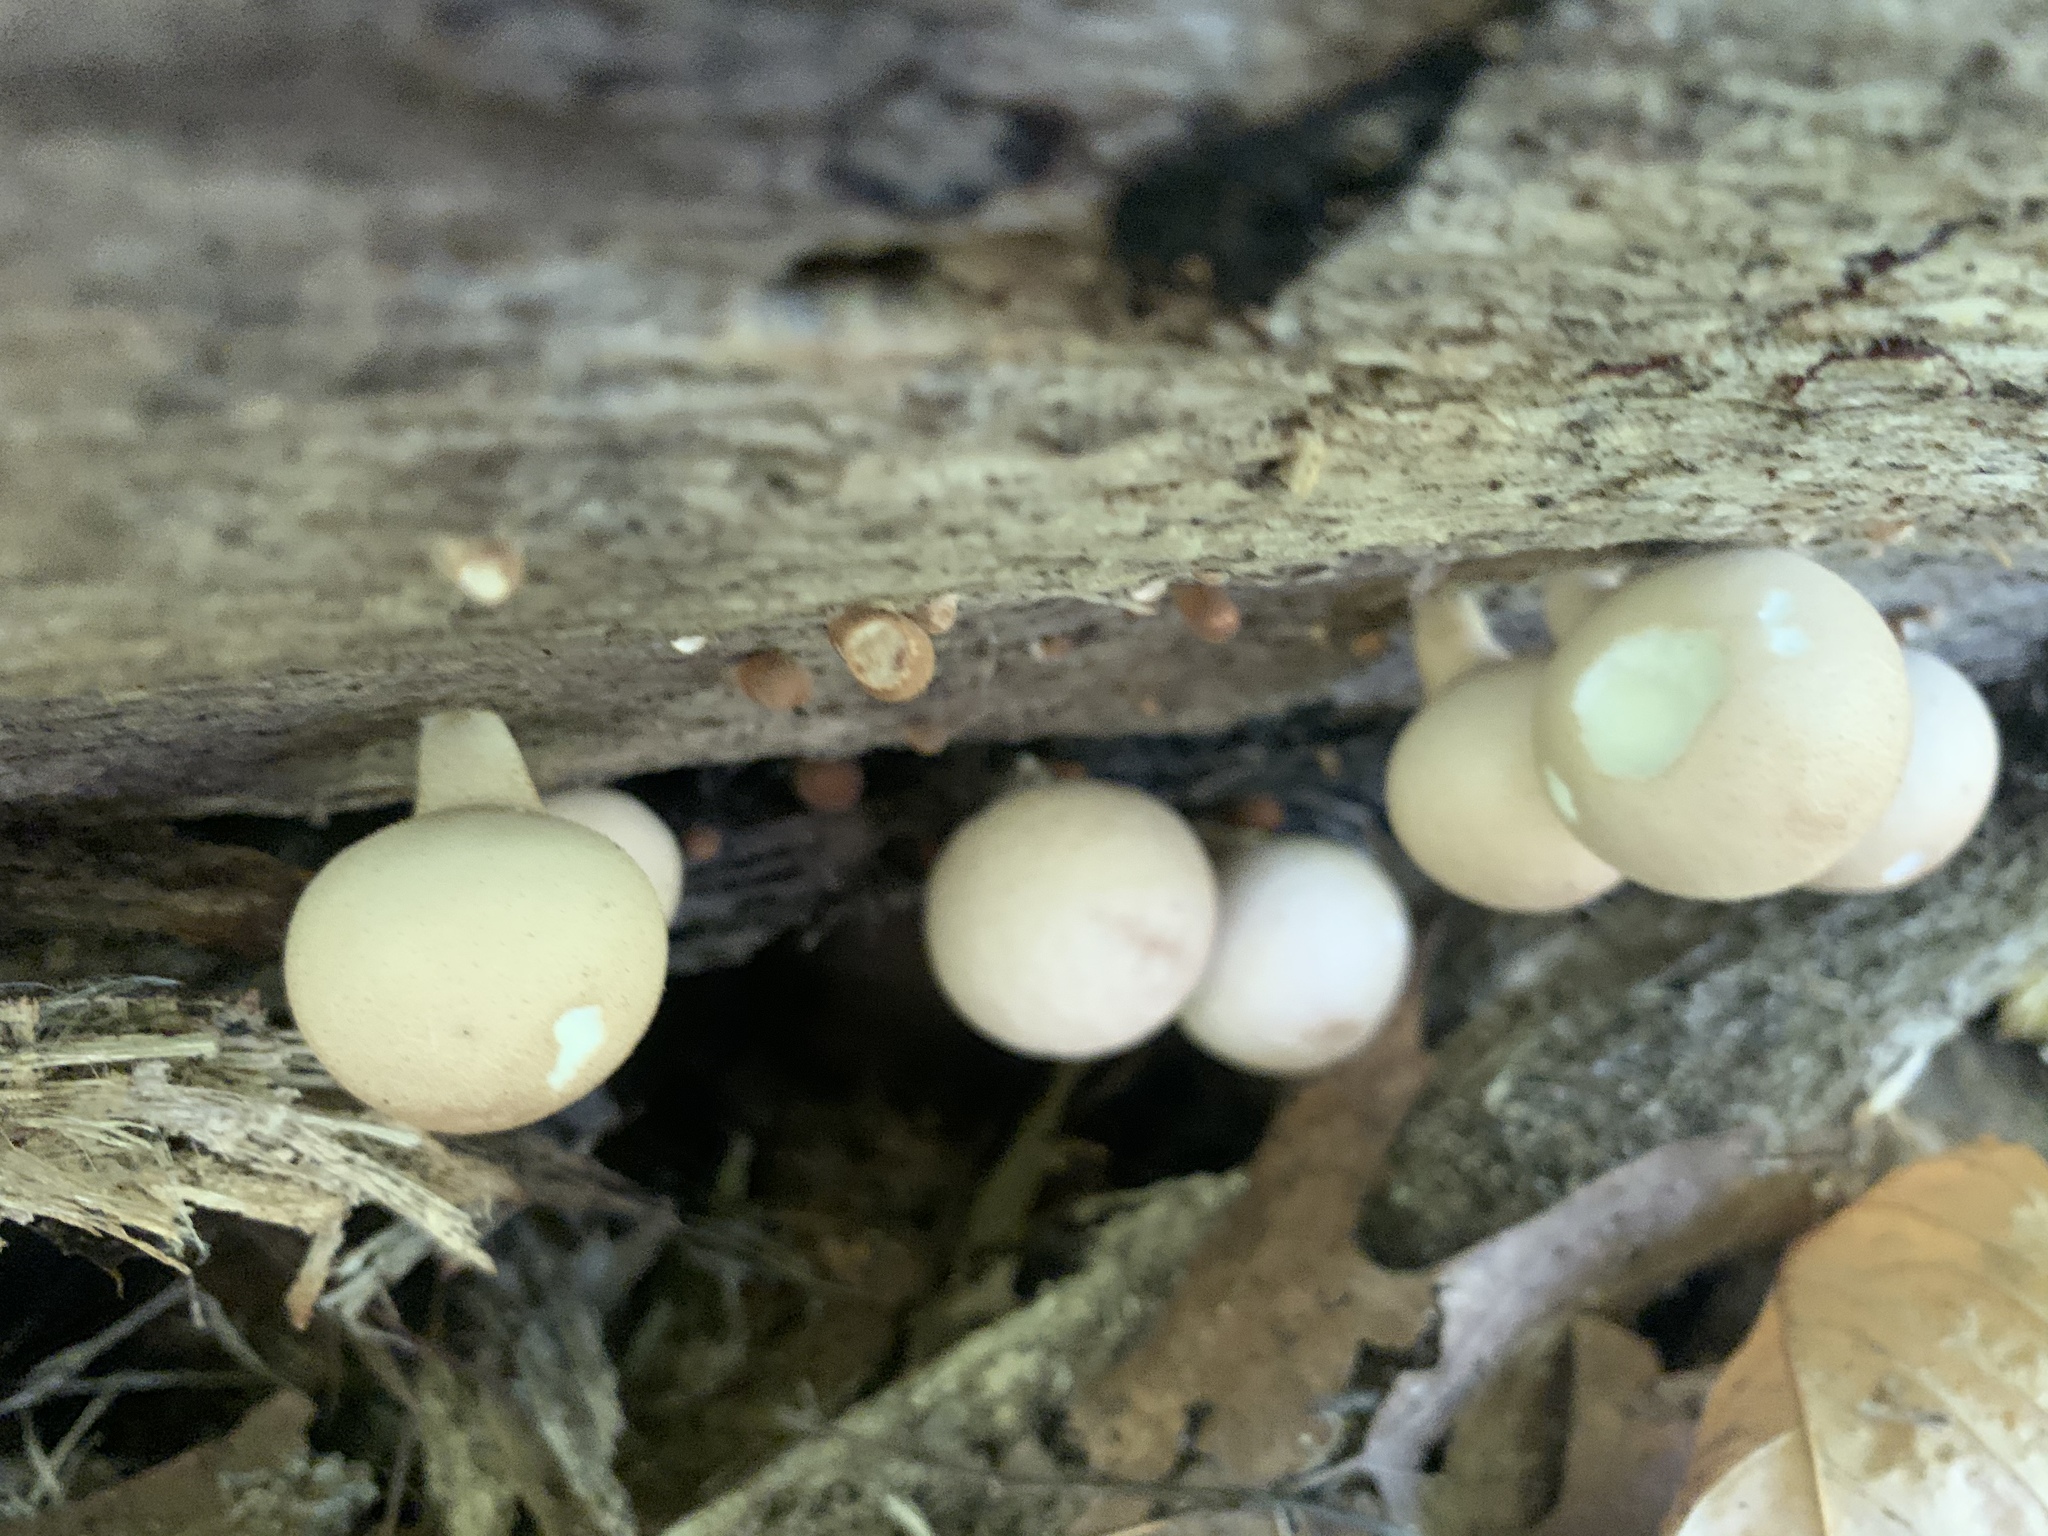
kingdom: Fungi
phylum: Basidiomycota
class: Agaricomycetes
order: Agaricales
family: Lycoperdaceae
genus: Apioperdon
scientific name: Apioperdon pyriforme
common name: Pear-shaped puffball
